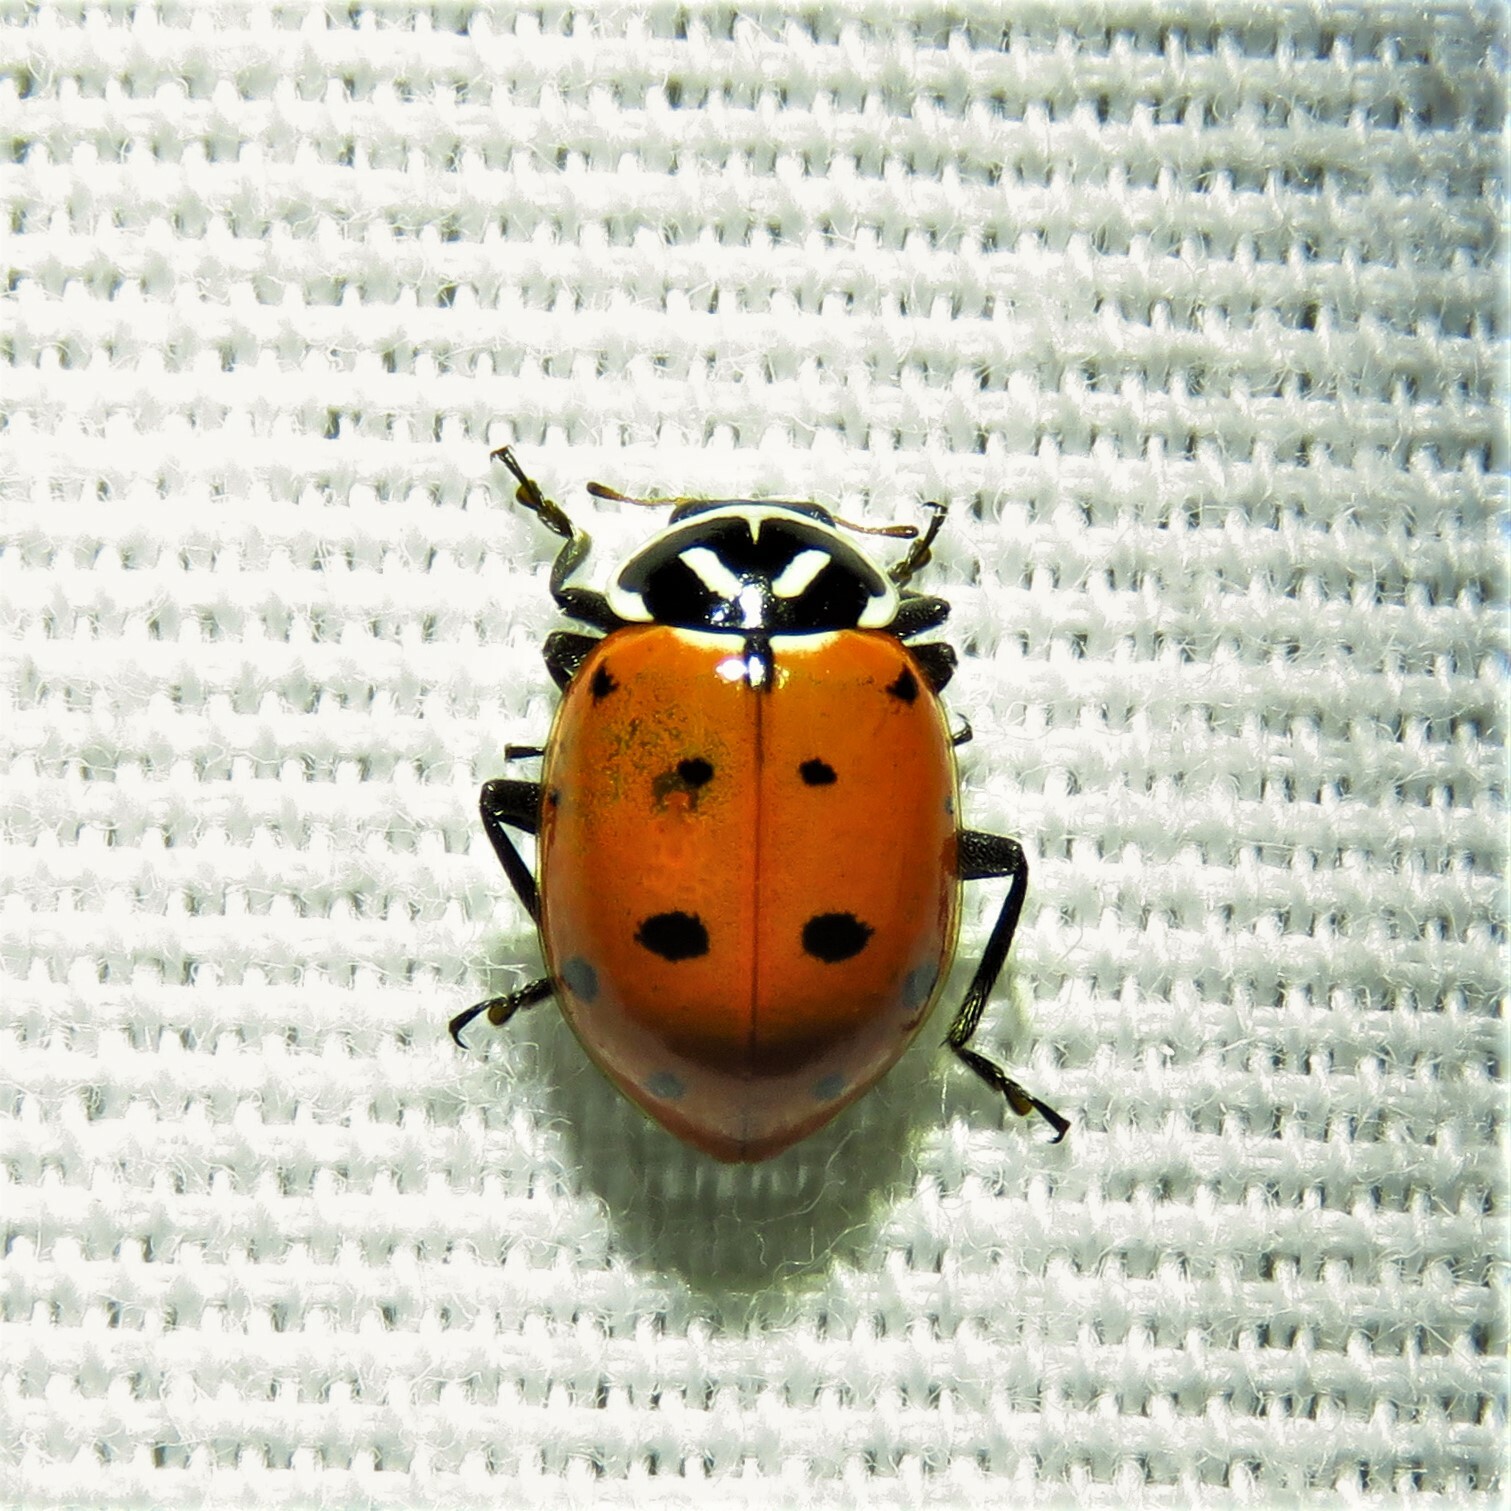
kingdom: Animalia
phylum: Arthropoda
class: Insecta
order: Coleoptera
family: Coccinellidae
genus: Hippodamia
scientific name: Hippodamia convergens
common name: Convergent lady beetle
